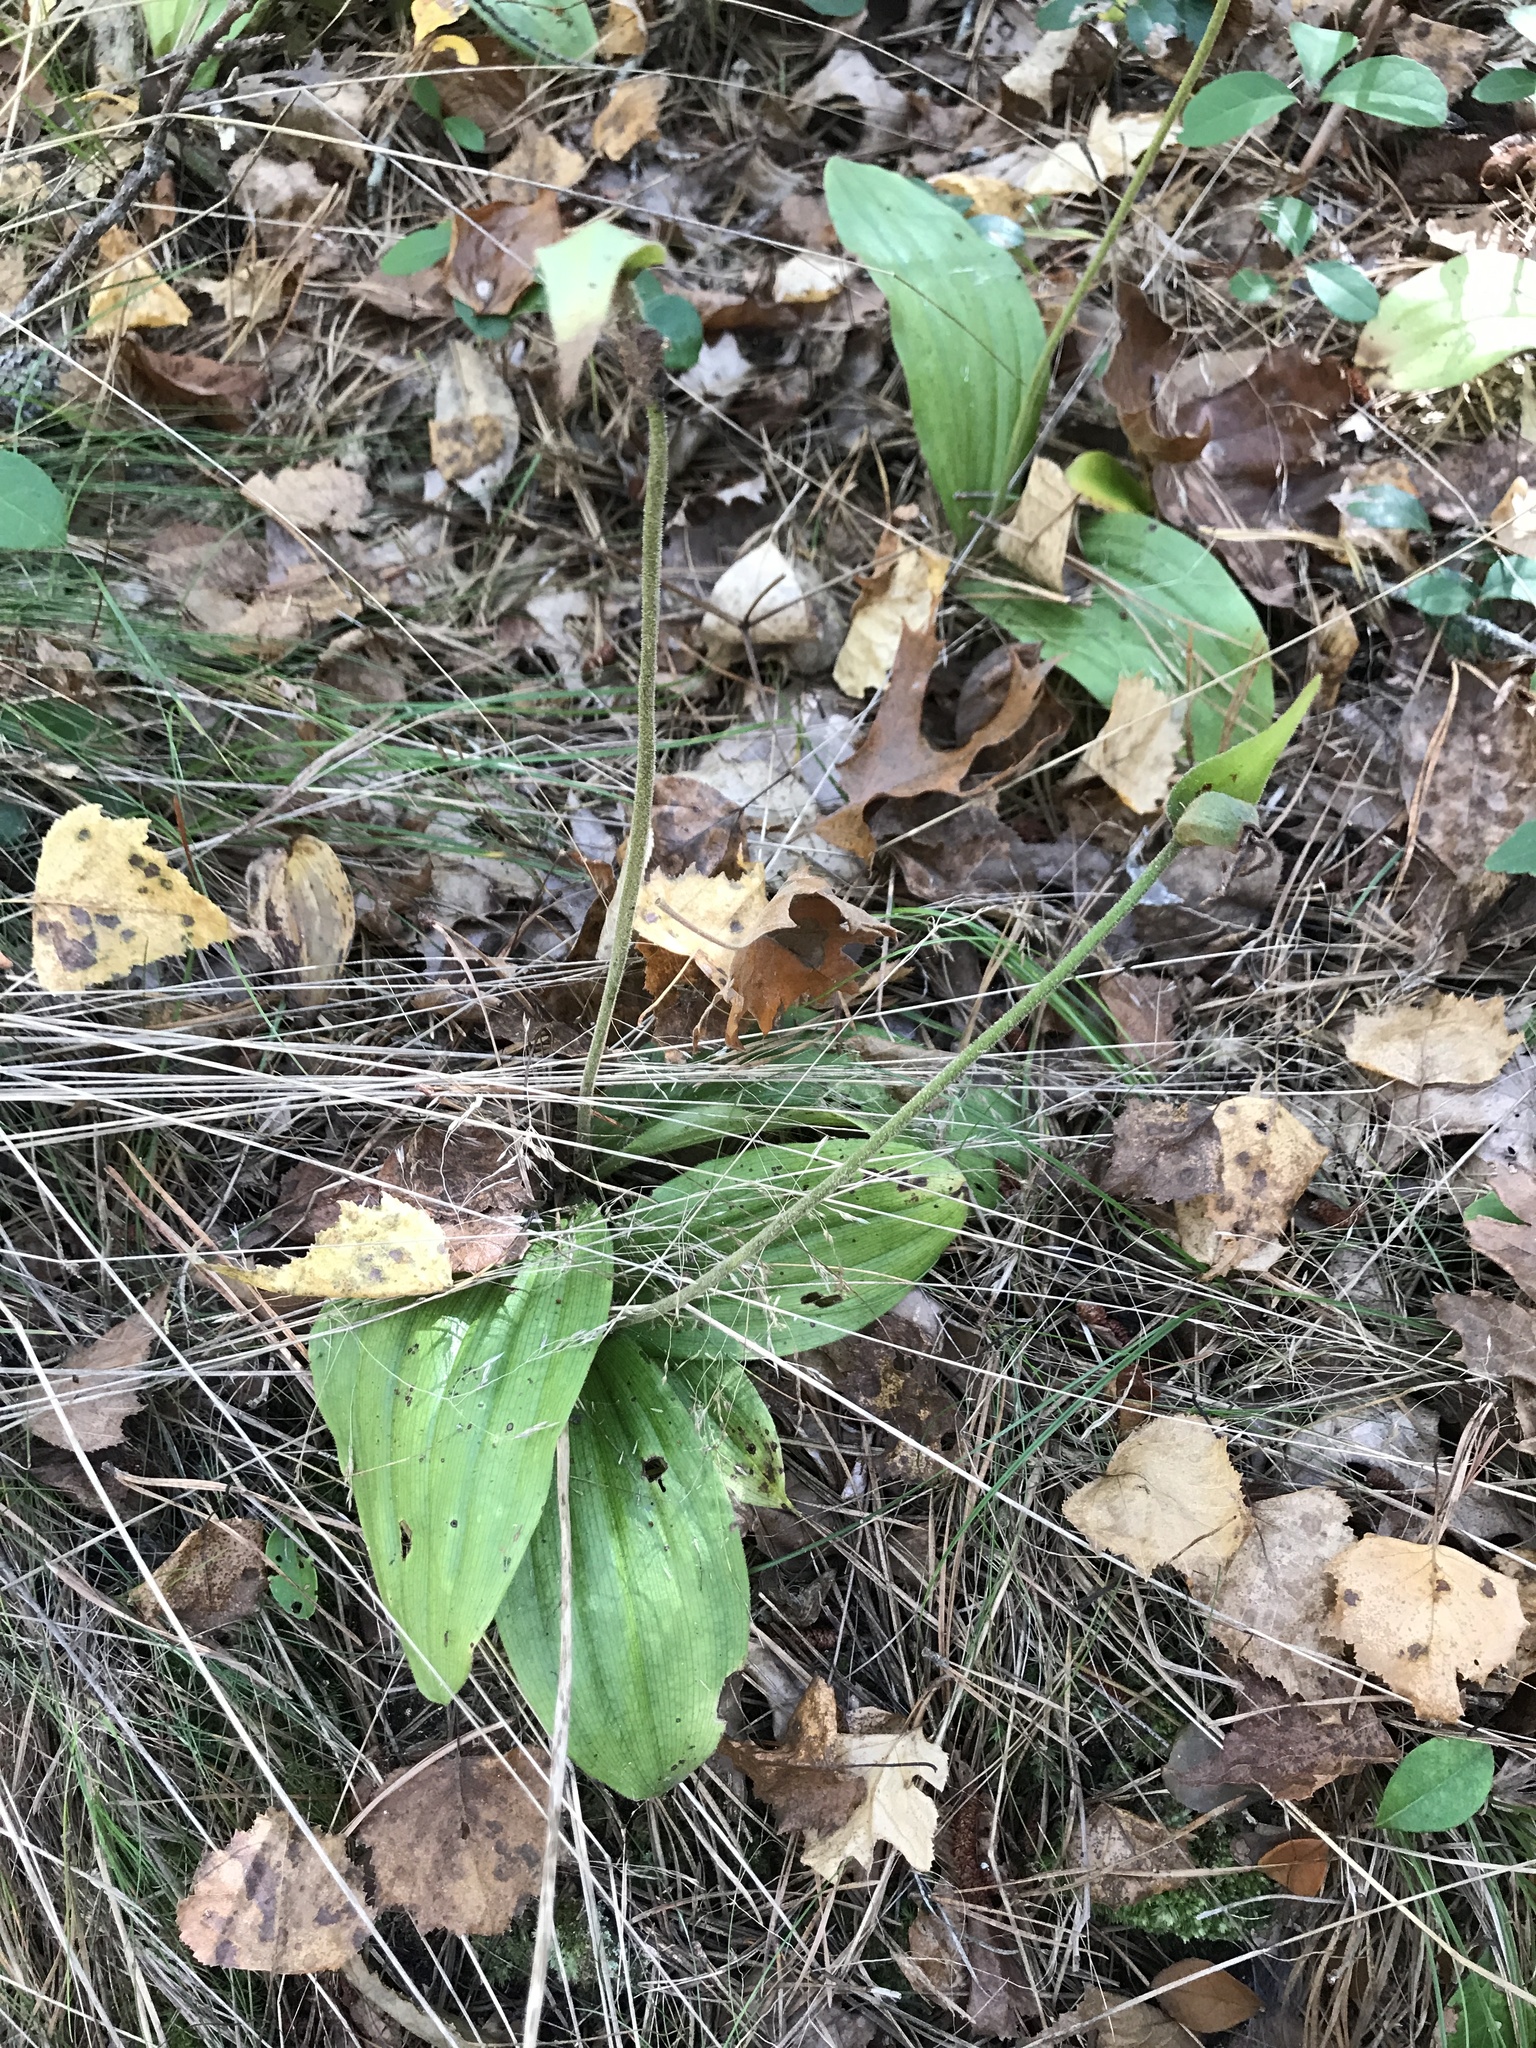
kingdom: Plantae
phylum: Tracheophyta
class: Liliopsida
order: Asparagales
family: Orchidaceae
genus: Cypripedium
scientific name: Cypripedium acaule
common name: Pink lady's-slipper
